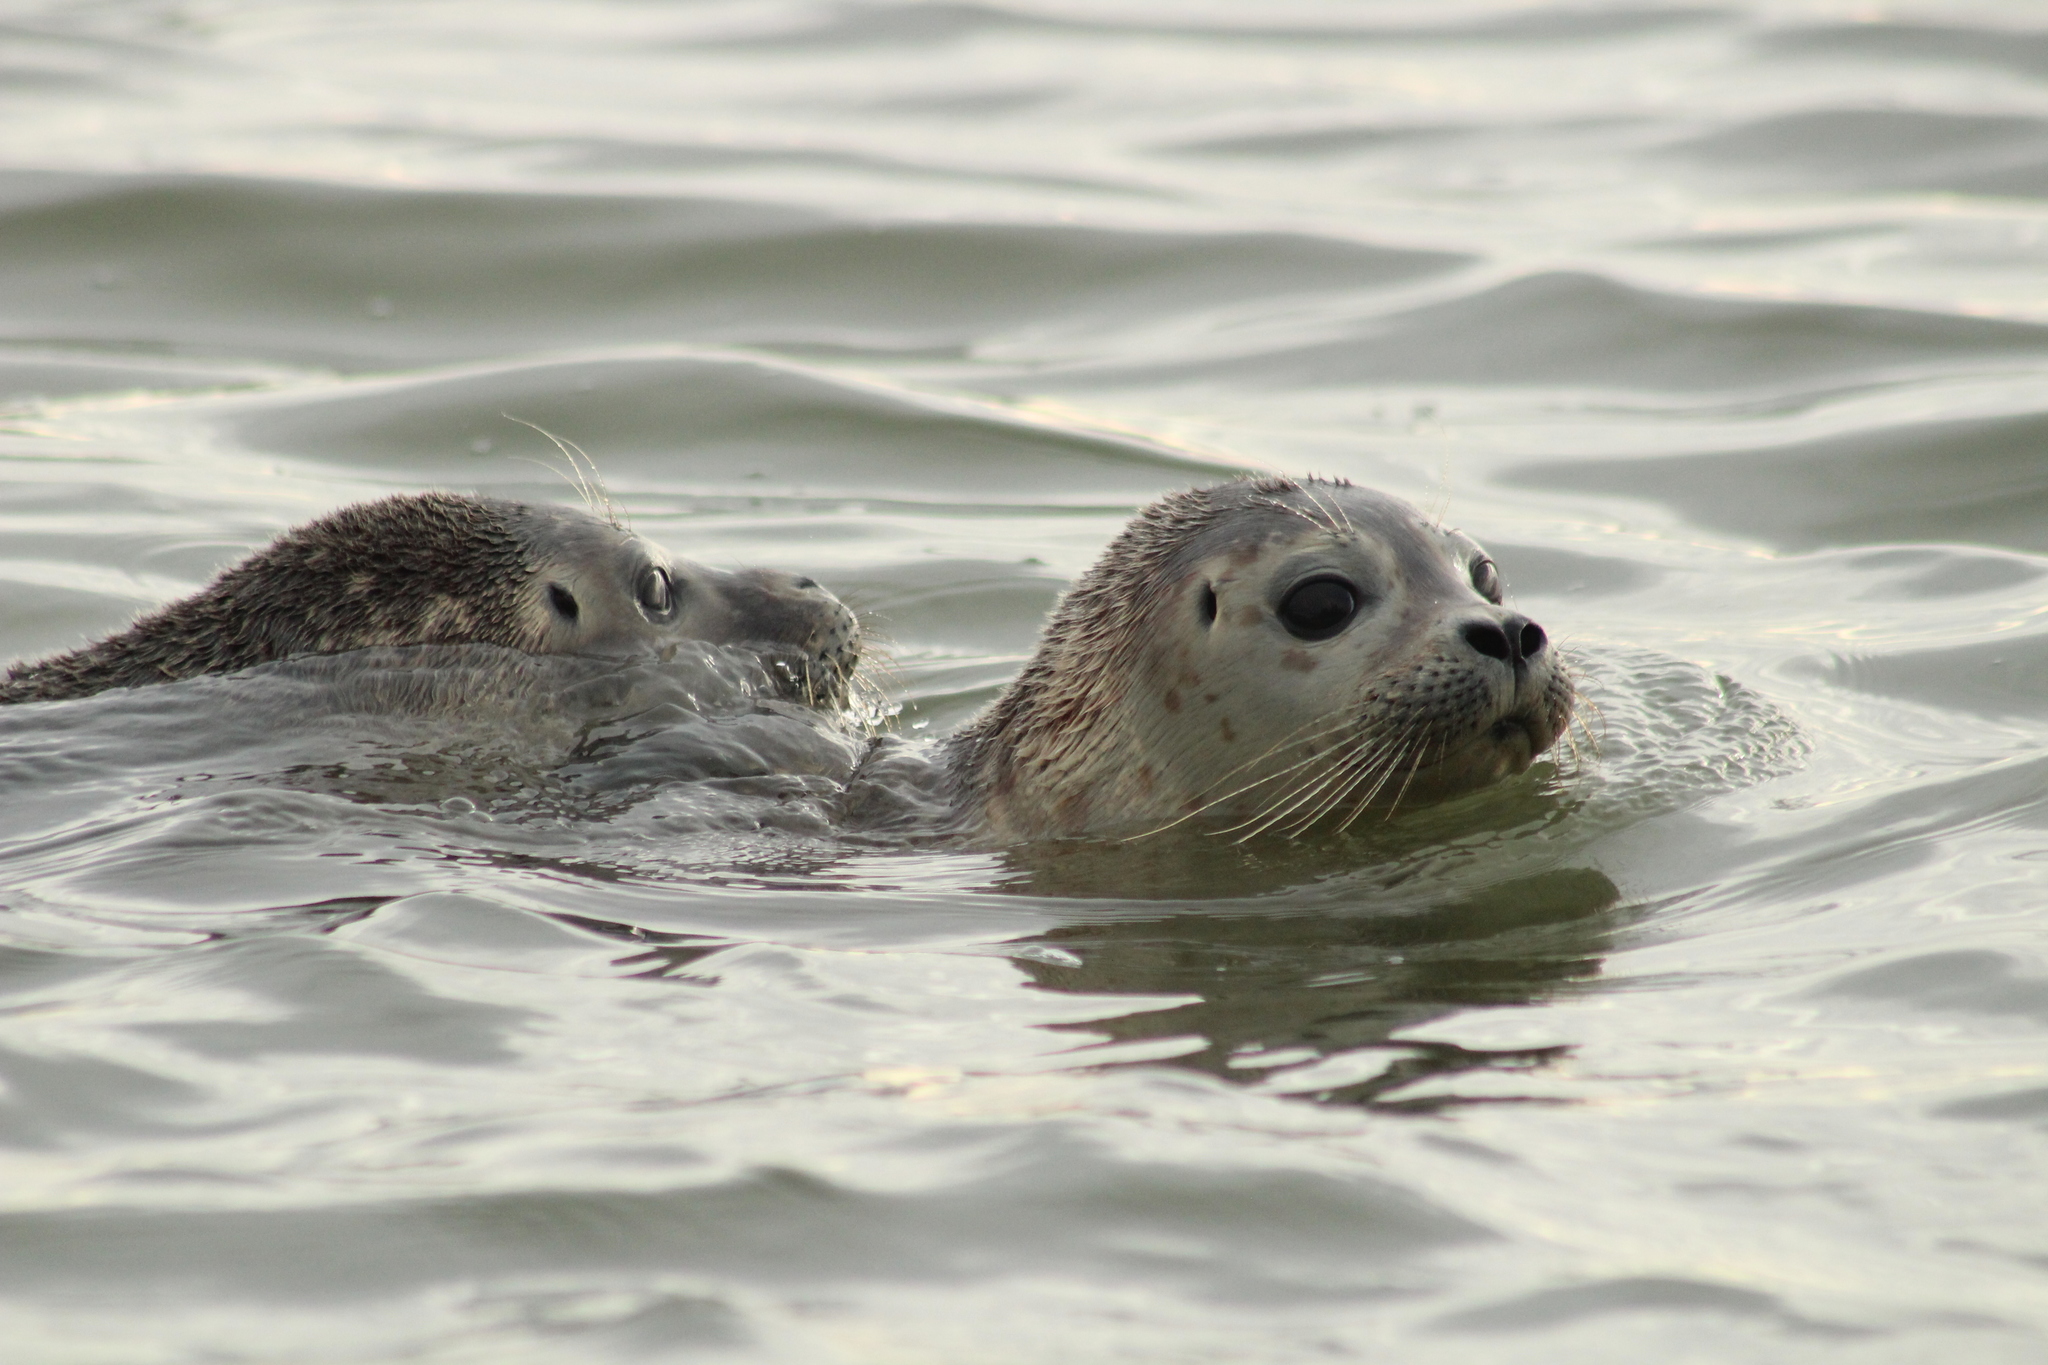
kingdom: Animalia
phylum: Chordata
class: Mammalia
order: Carnivora
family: Phocidae
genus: Phoca
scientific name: Phoca vitulina
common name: Harbor seal
